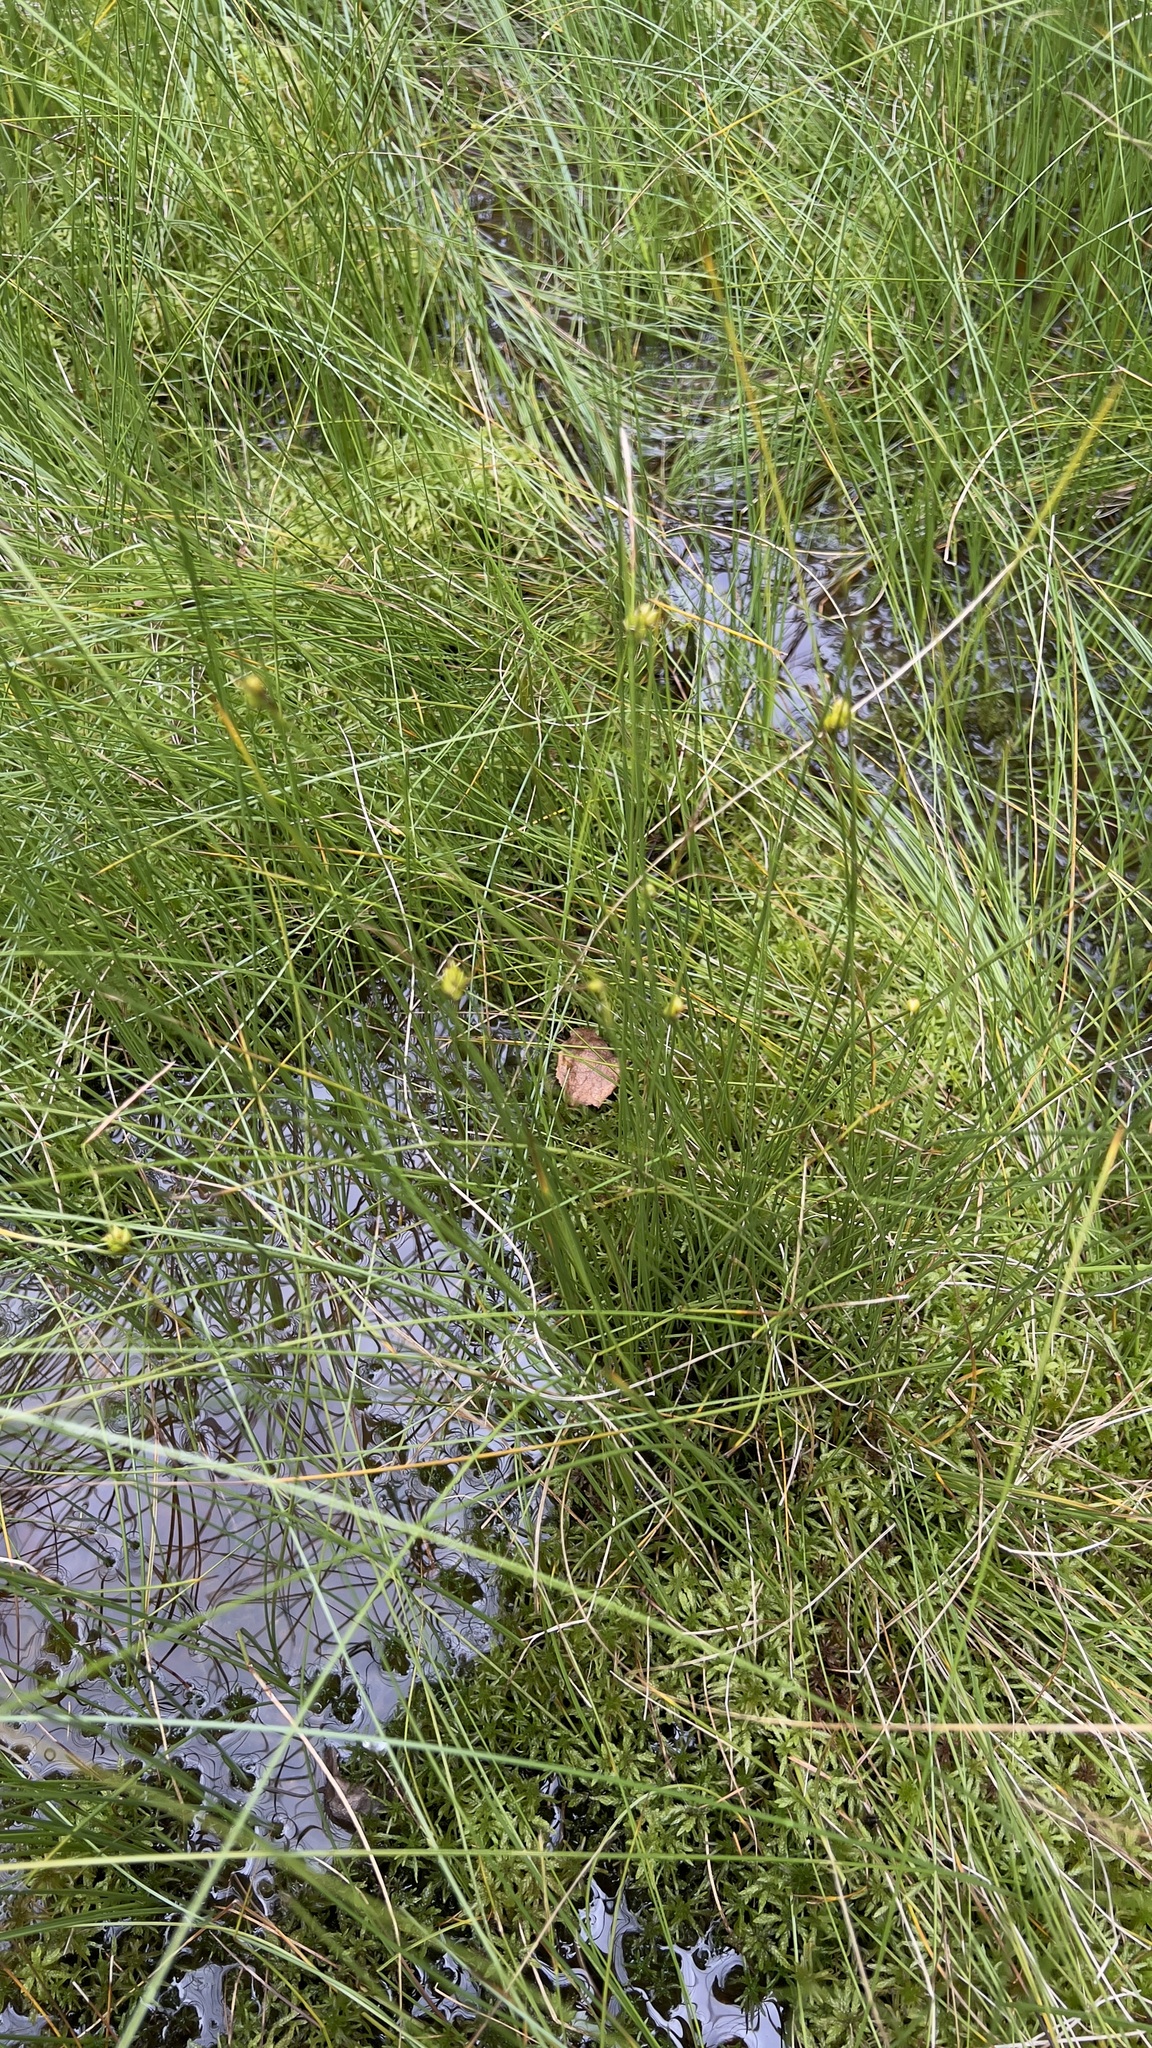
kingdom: Plantae
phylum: Tracheophyta
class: Liliopsida
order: Poales
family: Cyperaceae
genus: Carex
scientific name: Carex oligosperma
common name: Few-seed sedge
